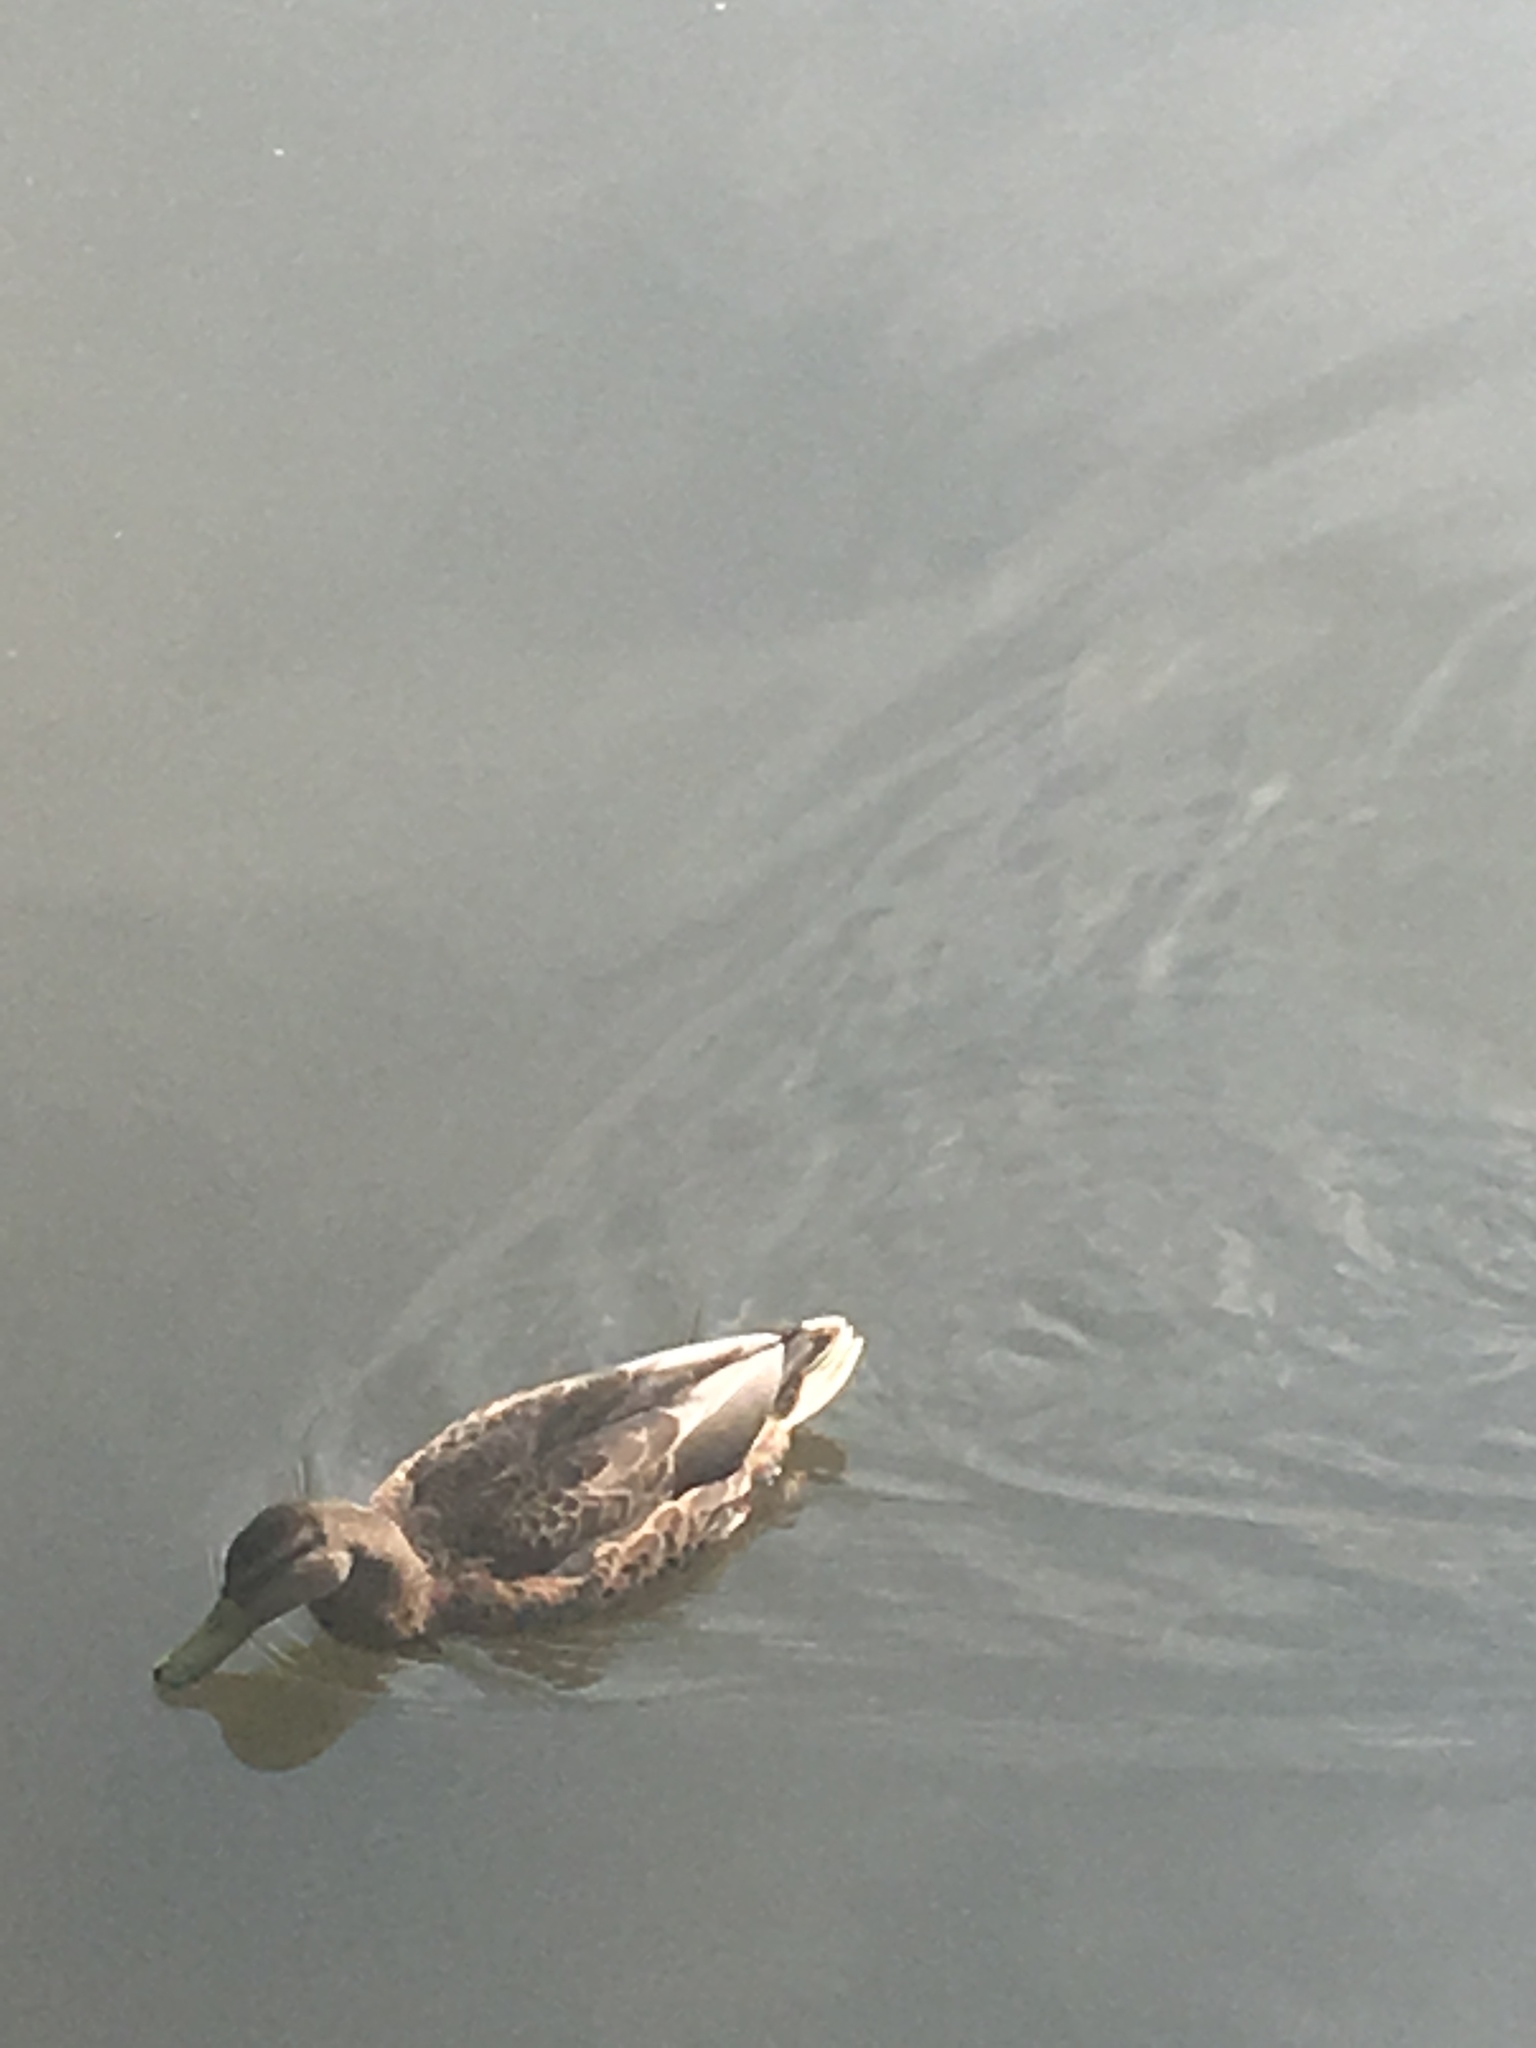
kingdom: Animalia
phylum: Chordata
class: Aves
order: Anseriformes
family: Anatidae
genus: Anas
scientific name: Anas platyrhynchos
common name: Mallard
